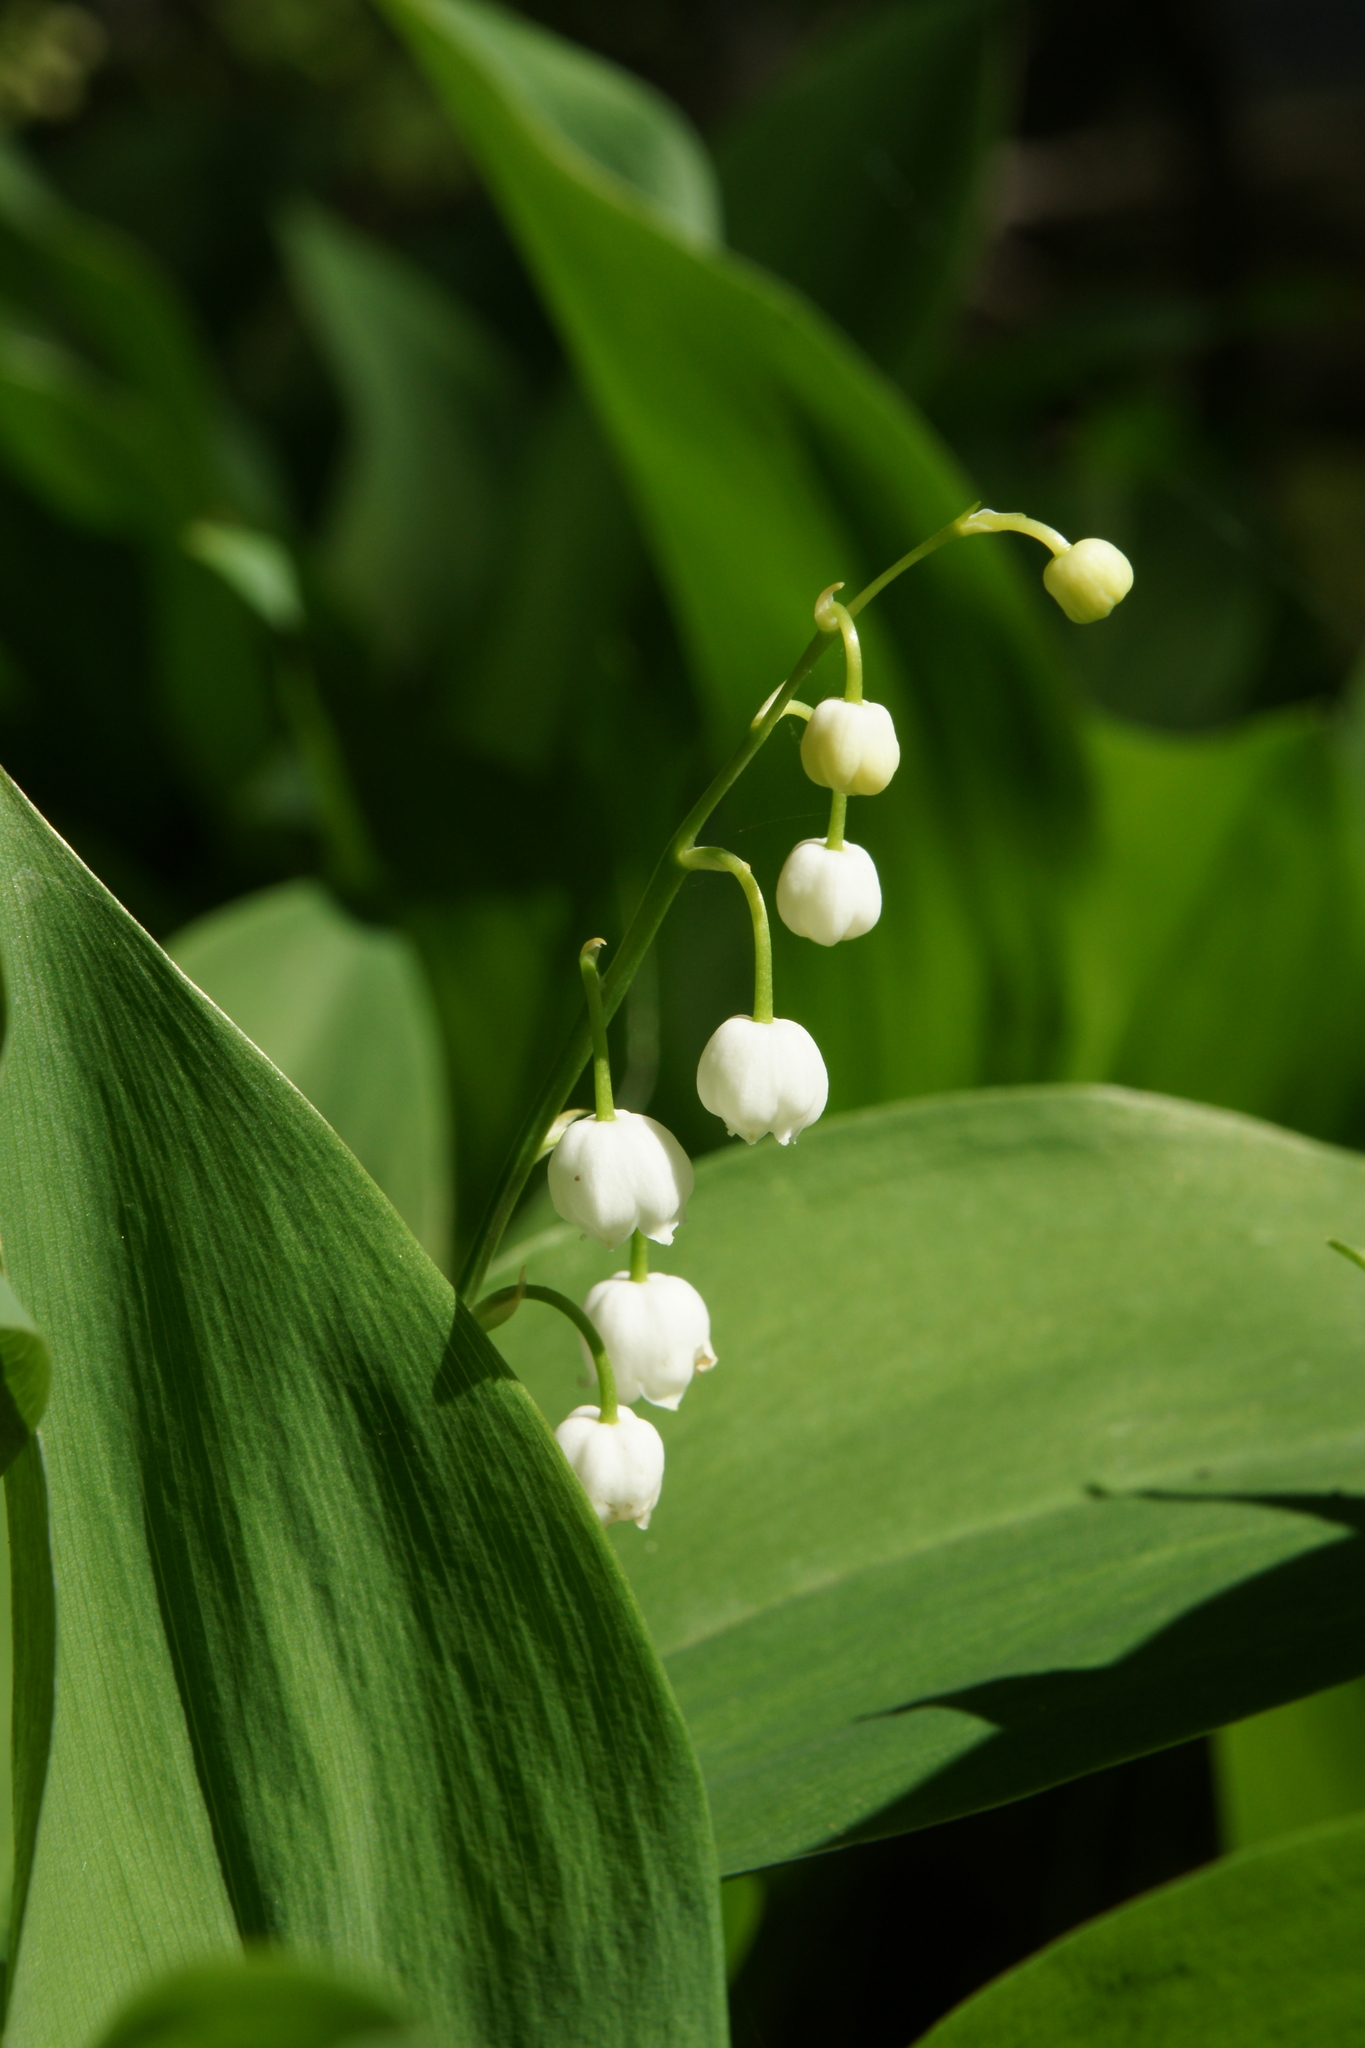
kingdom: Plantae
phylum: Tracheophyta
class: Liliopsida
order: Asparagales
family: Asparagaceae
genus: Convallaria
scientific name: Convallaria majalis
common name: Lily-of-the-valley
